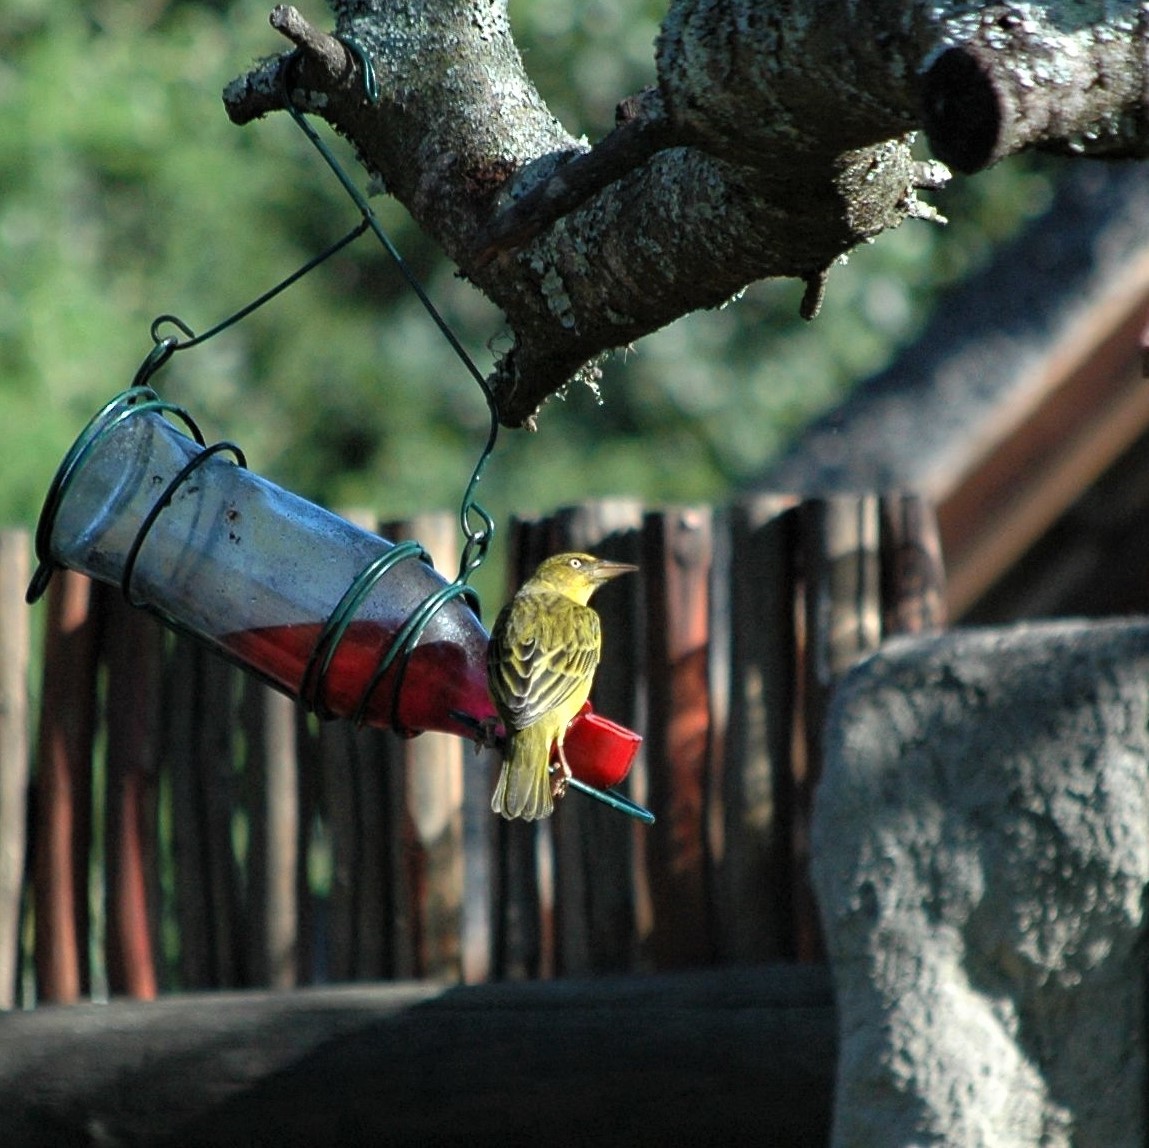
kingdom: Animalia
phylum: Chordata
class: Aves
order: Passeriformes
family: Ploceidae
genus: Ploceus
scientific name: Ploceus capensis
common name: Cape weaver
